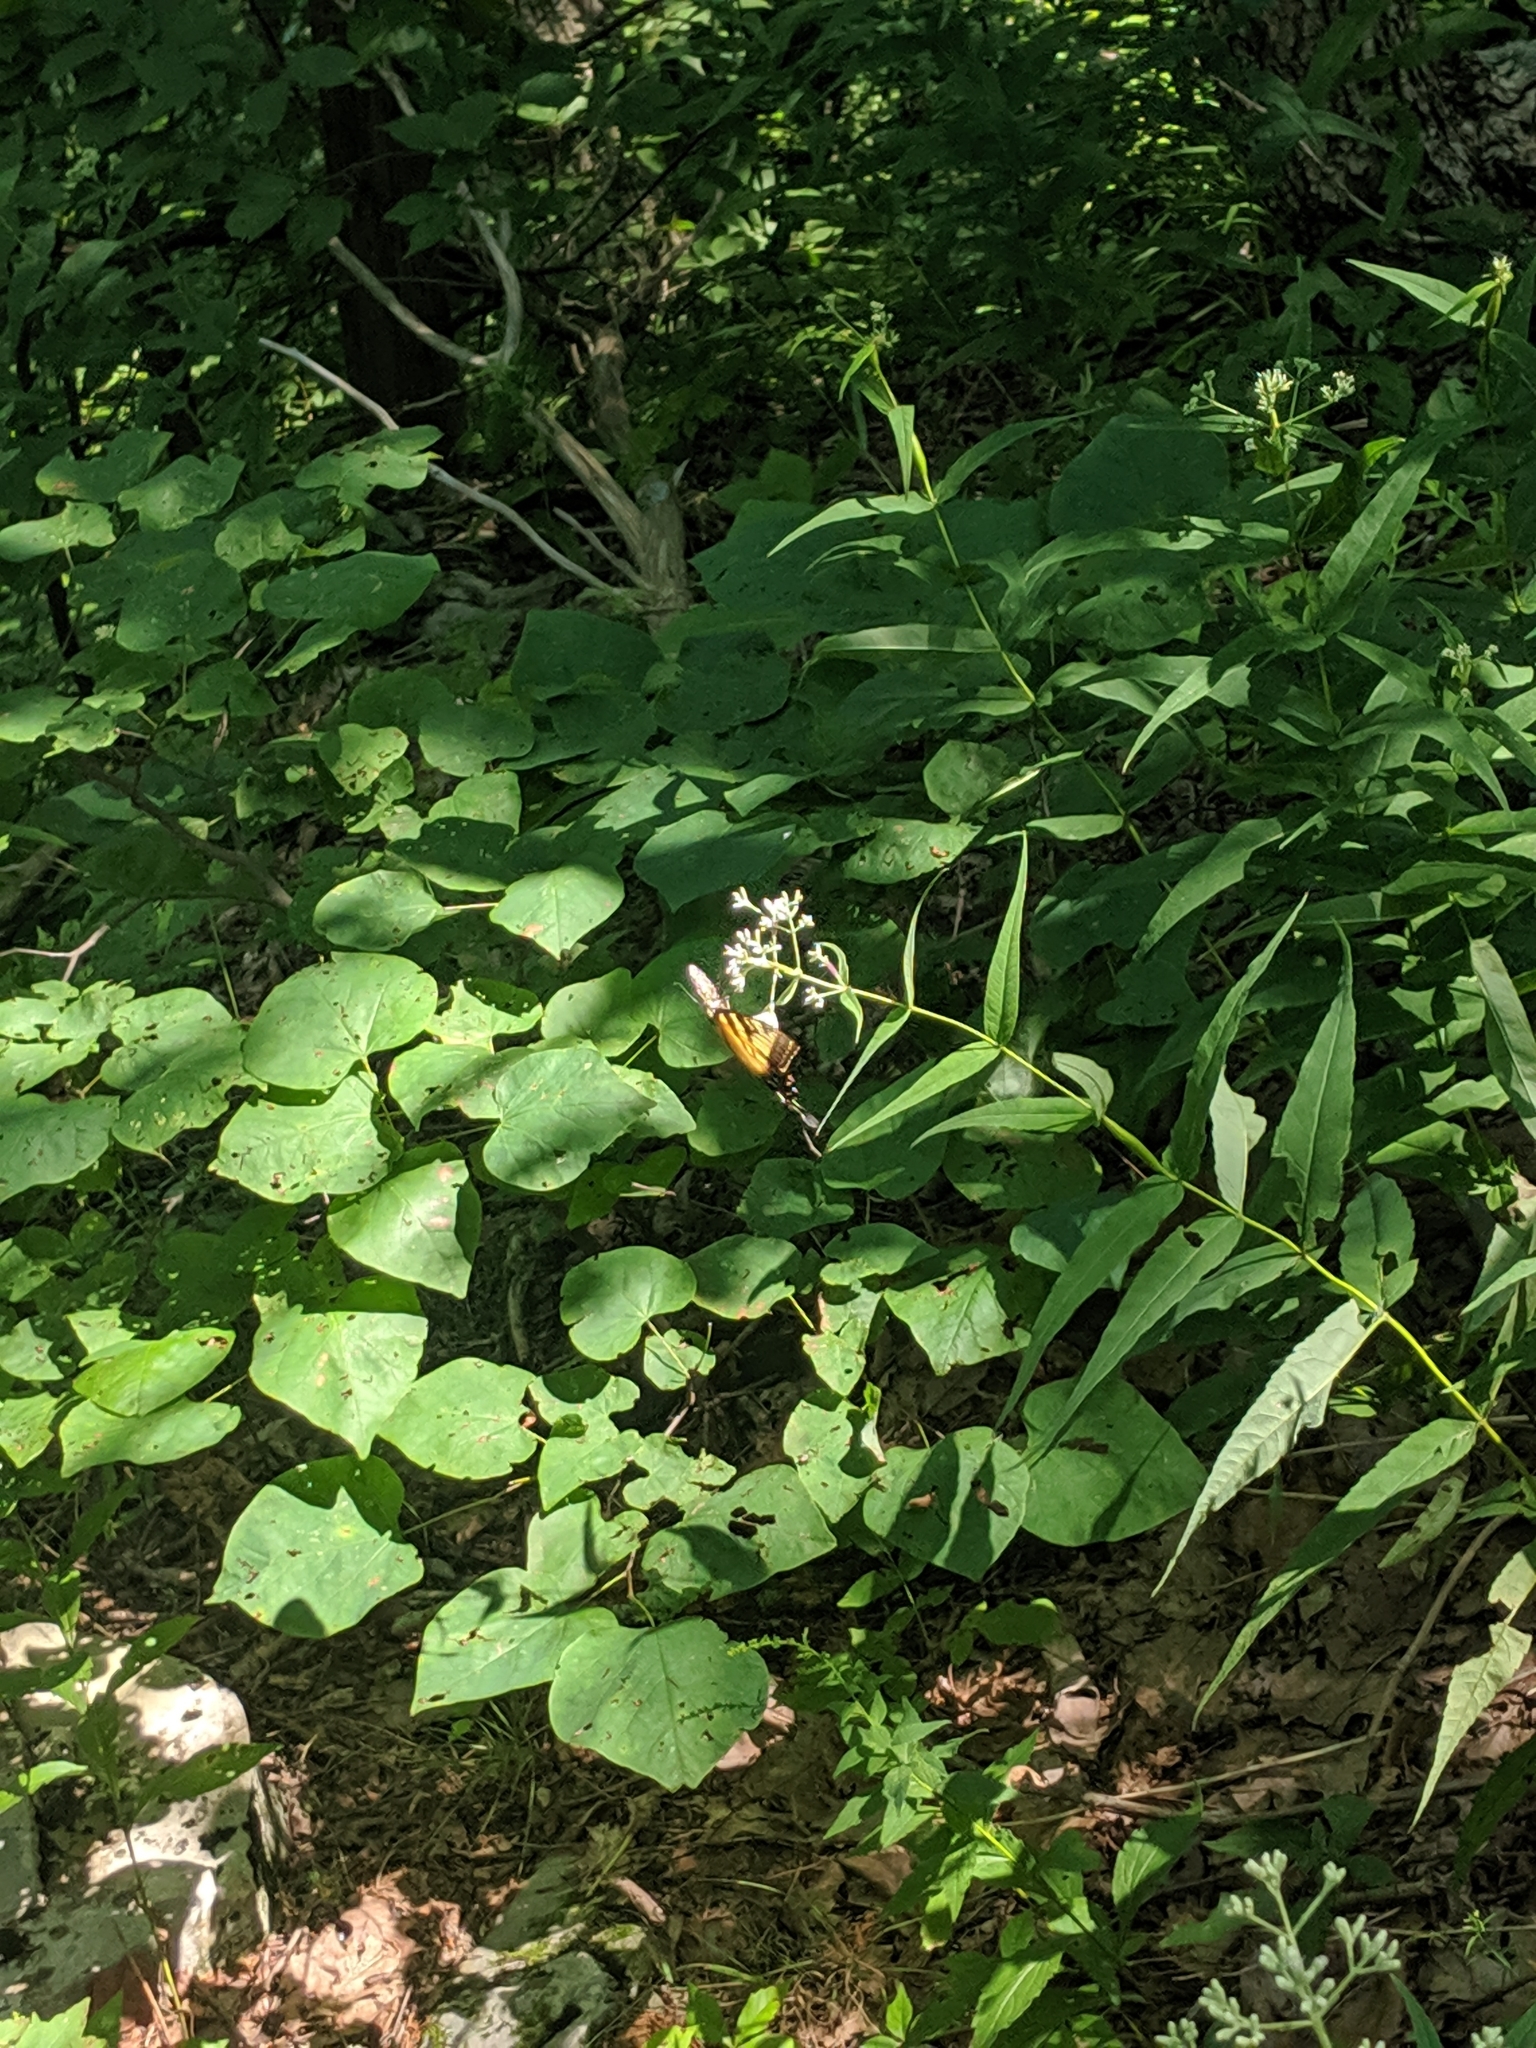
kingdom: Animalia
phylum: Arthropoda
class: Insecta
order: Lepidoptera
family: Papilionidae
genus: Papilio
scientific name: Papilio glaucus
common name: Tiger swallowtail
